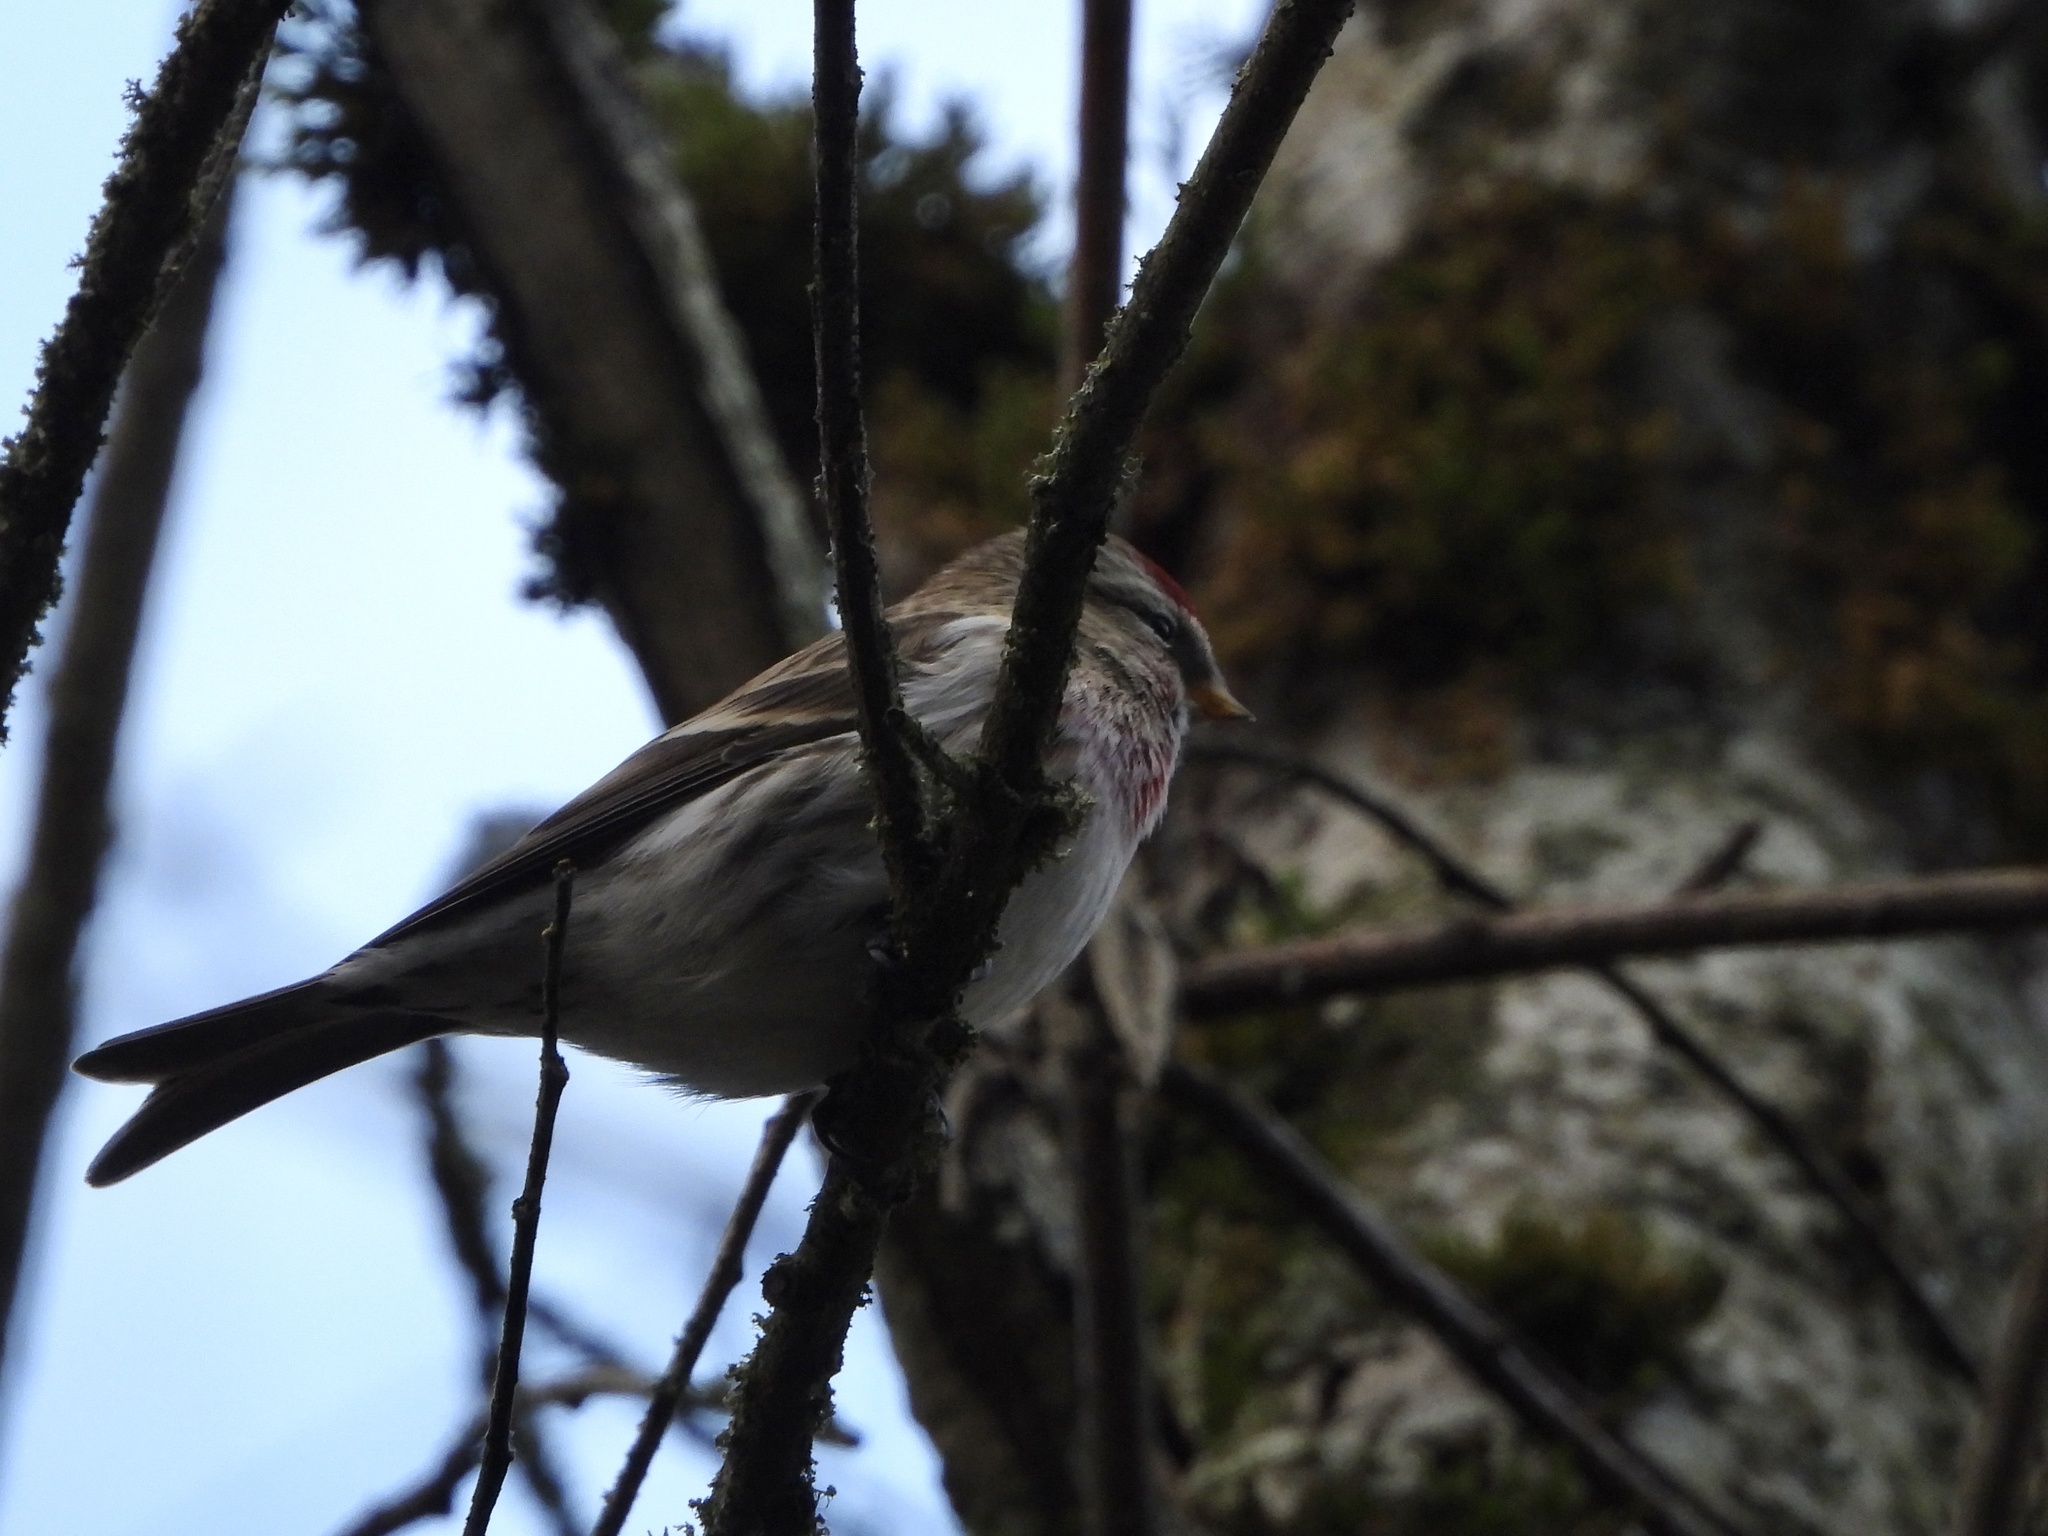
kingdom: Animalia
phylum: Chordata
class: Aves
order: Passeriformes
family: Fringillidae
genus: Acanthis
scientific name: Acanthis flammea
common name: Common redpoll
